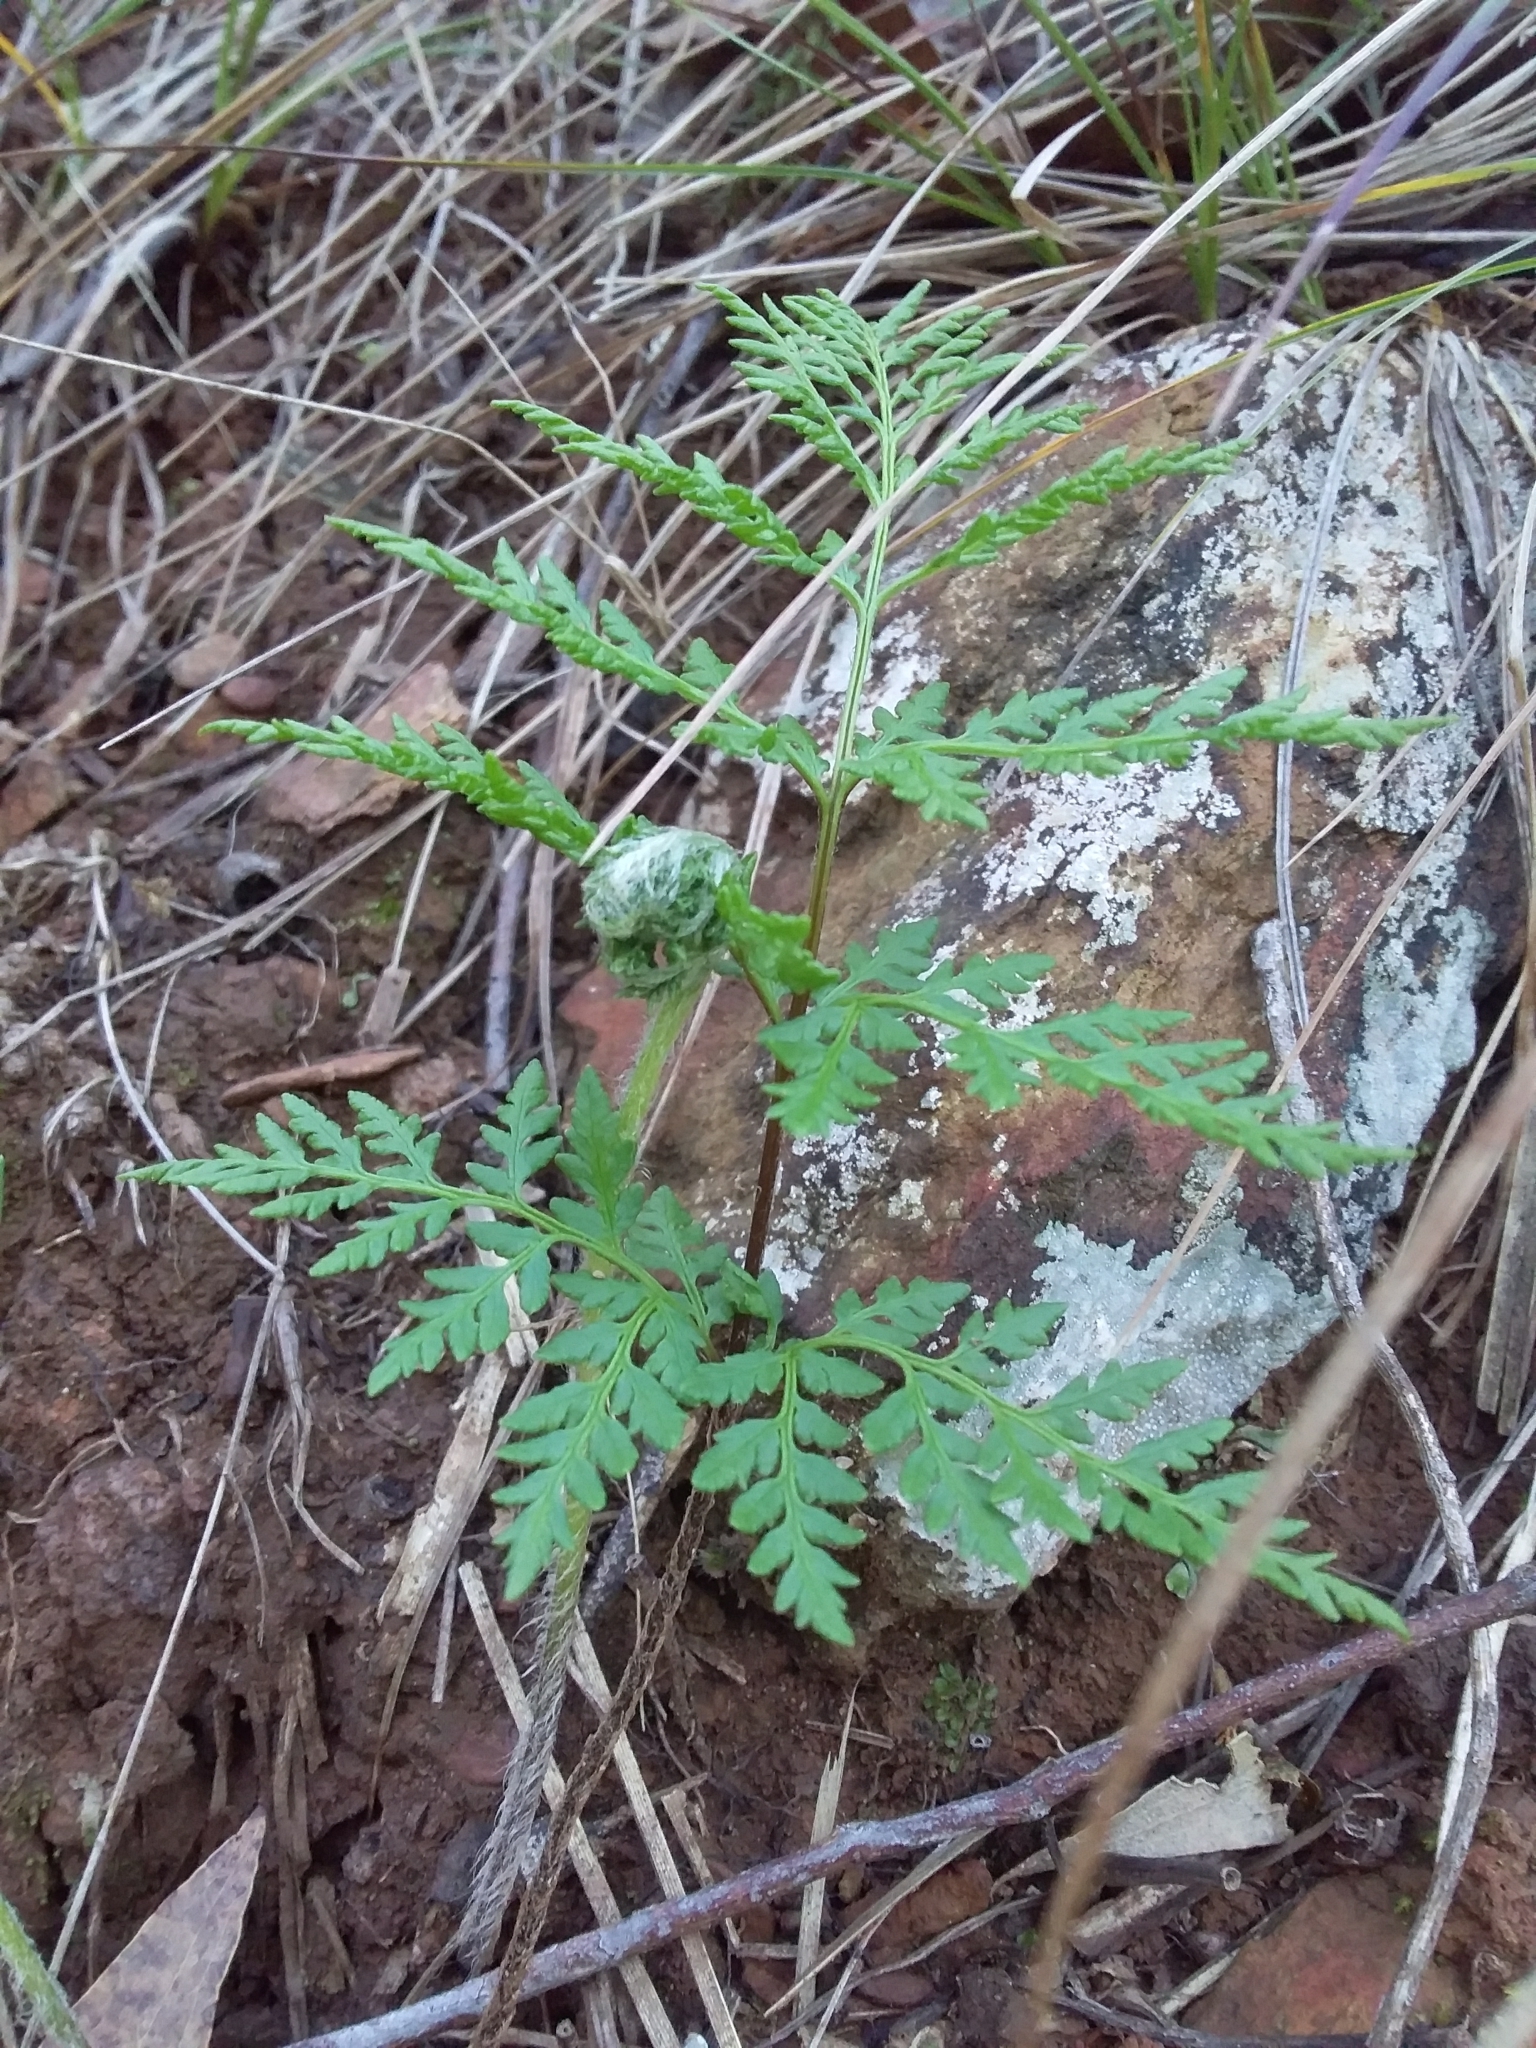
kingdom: Plantae
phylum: Tracheophyta
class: Polypodiopsida
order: Polypodiales
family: Pteridaceae
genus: Cheilanthes
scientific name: Cheilanthes austrotenuifolia
